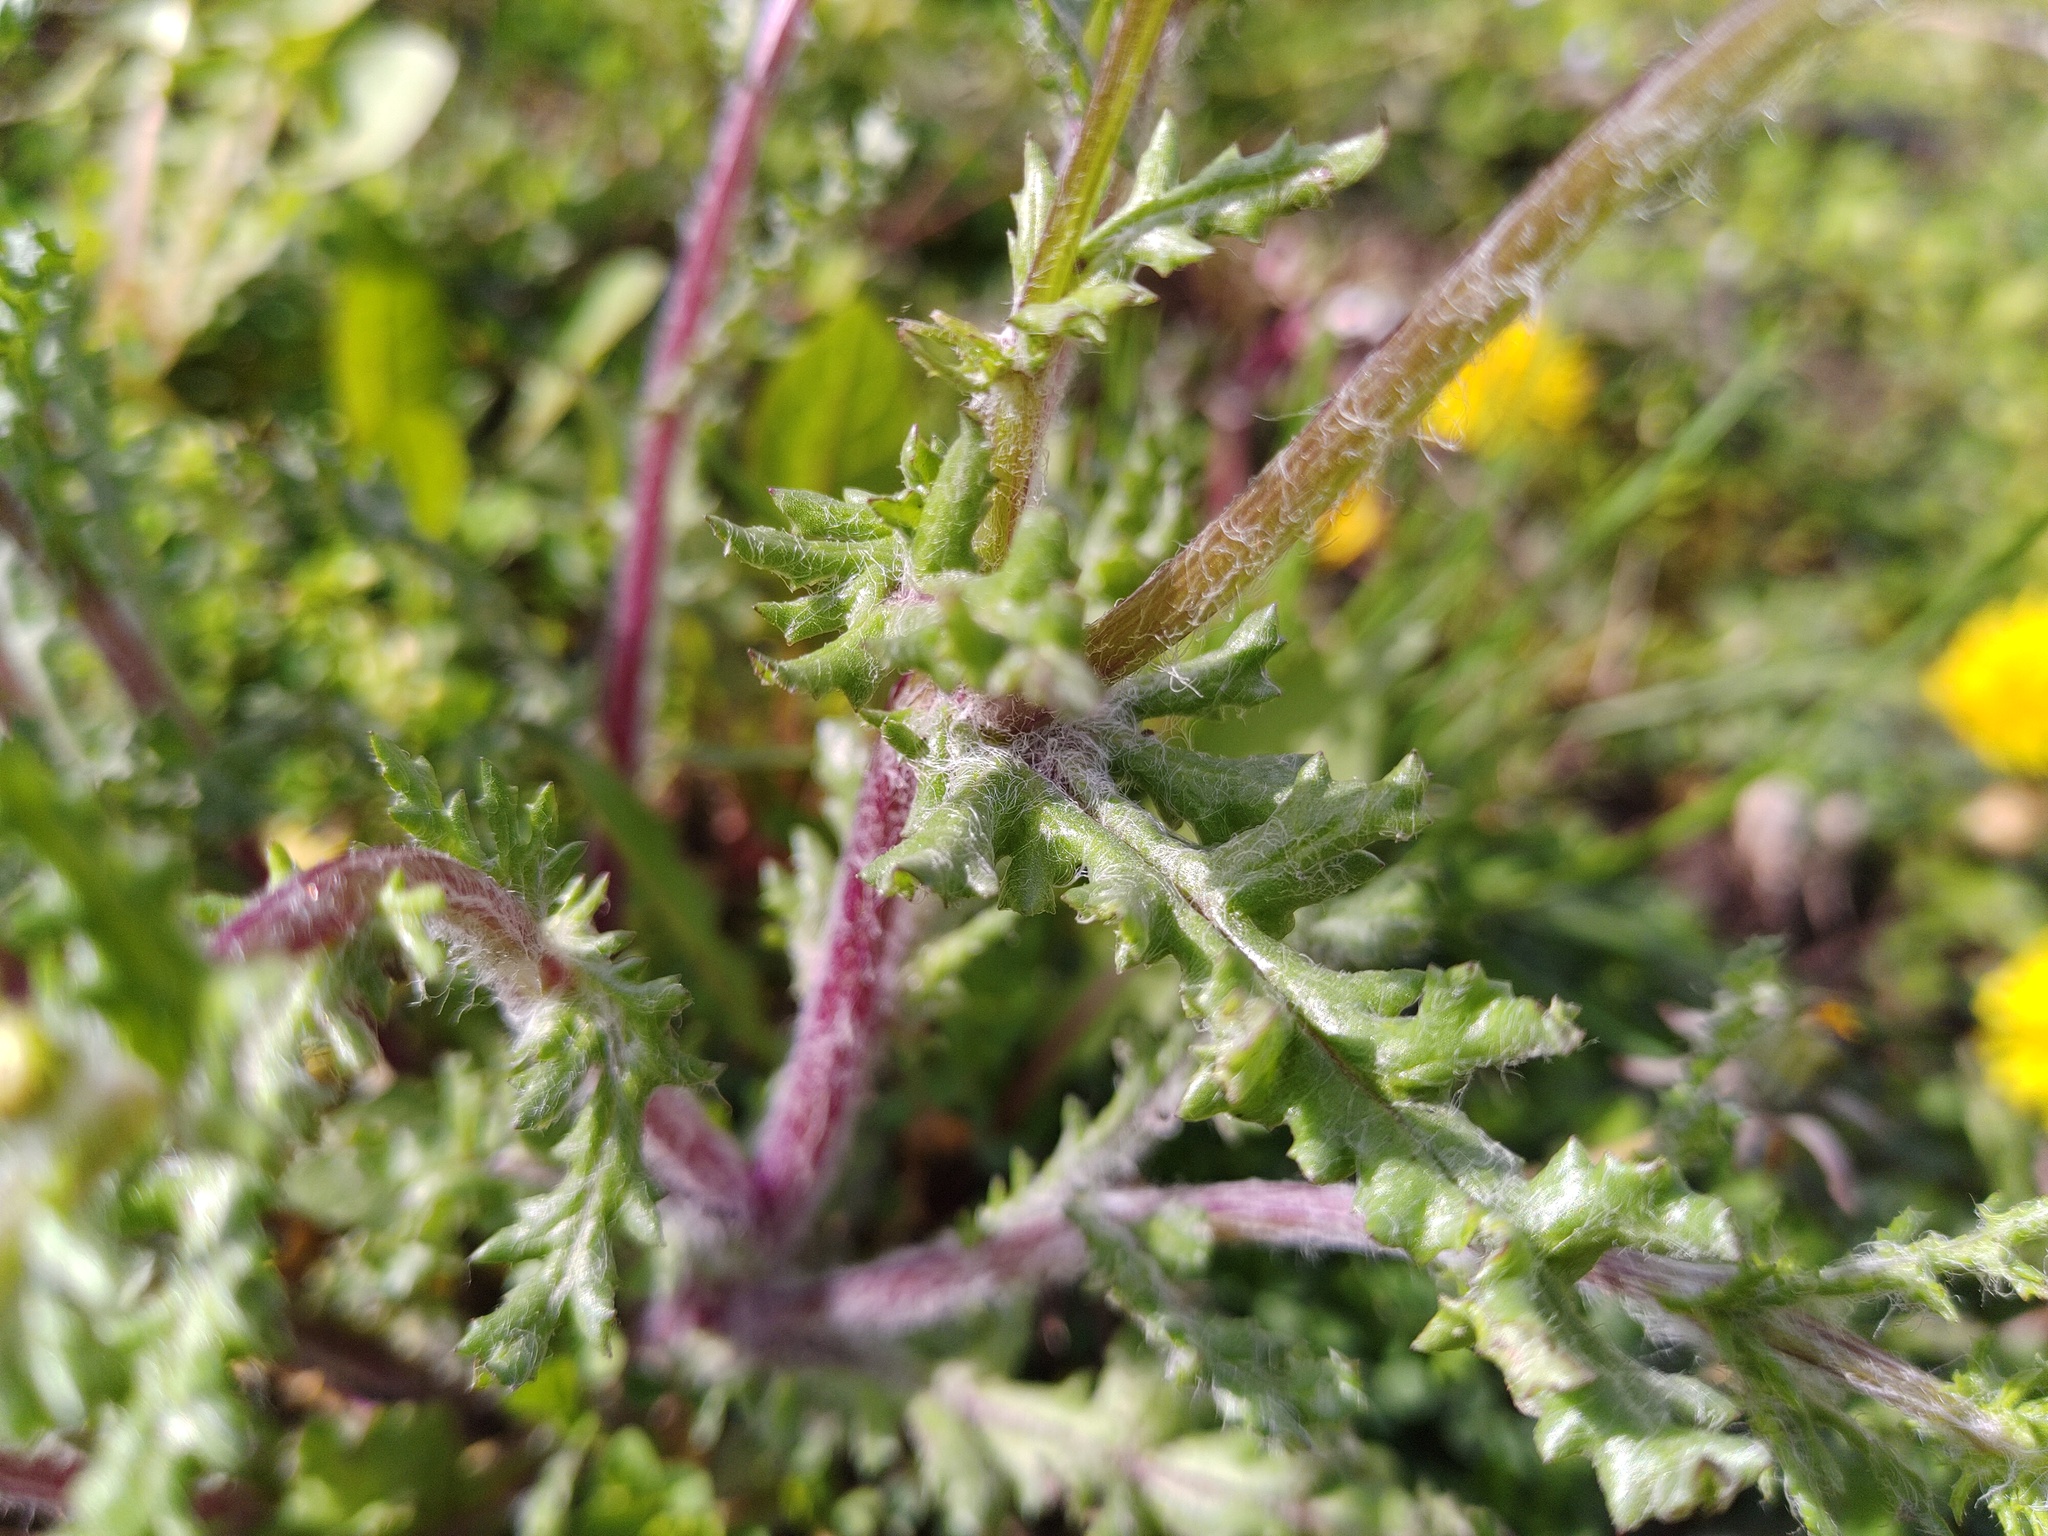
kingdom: Plantae
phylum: Tracheophyta
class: Magnoliopsida
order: Asterales
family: Asteraceae
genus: Senecio
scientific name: Senecio vernalis
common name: Eastern groundsel
